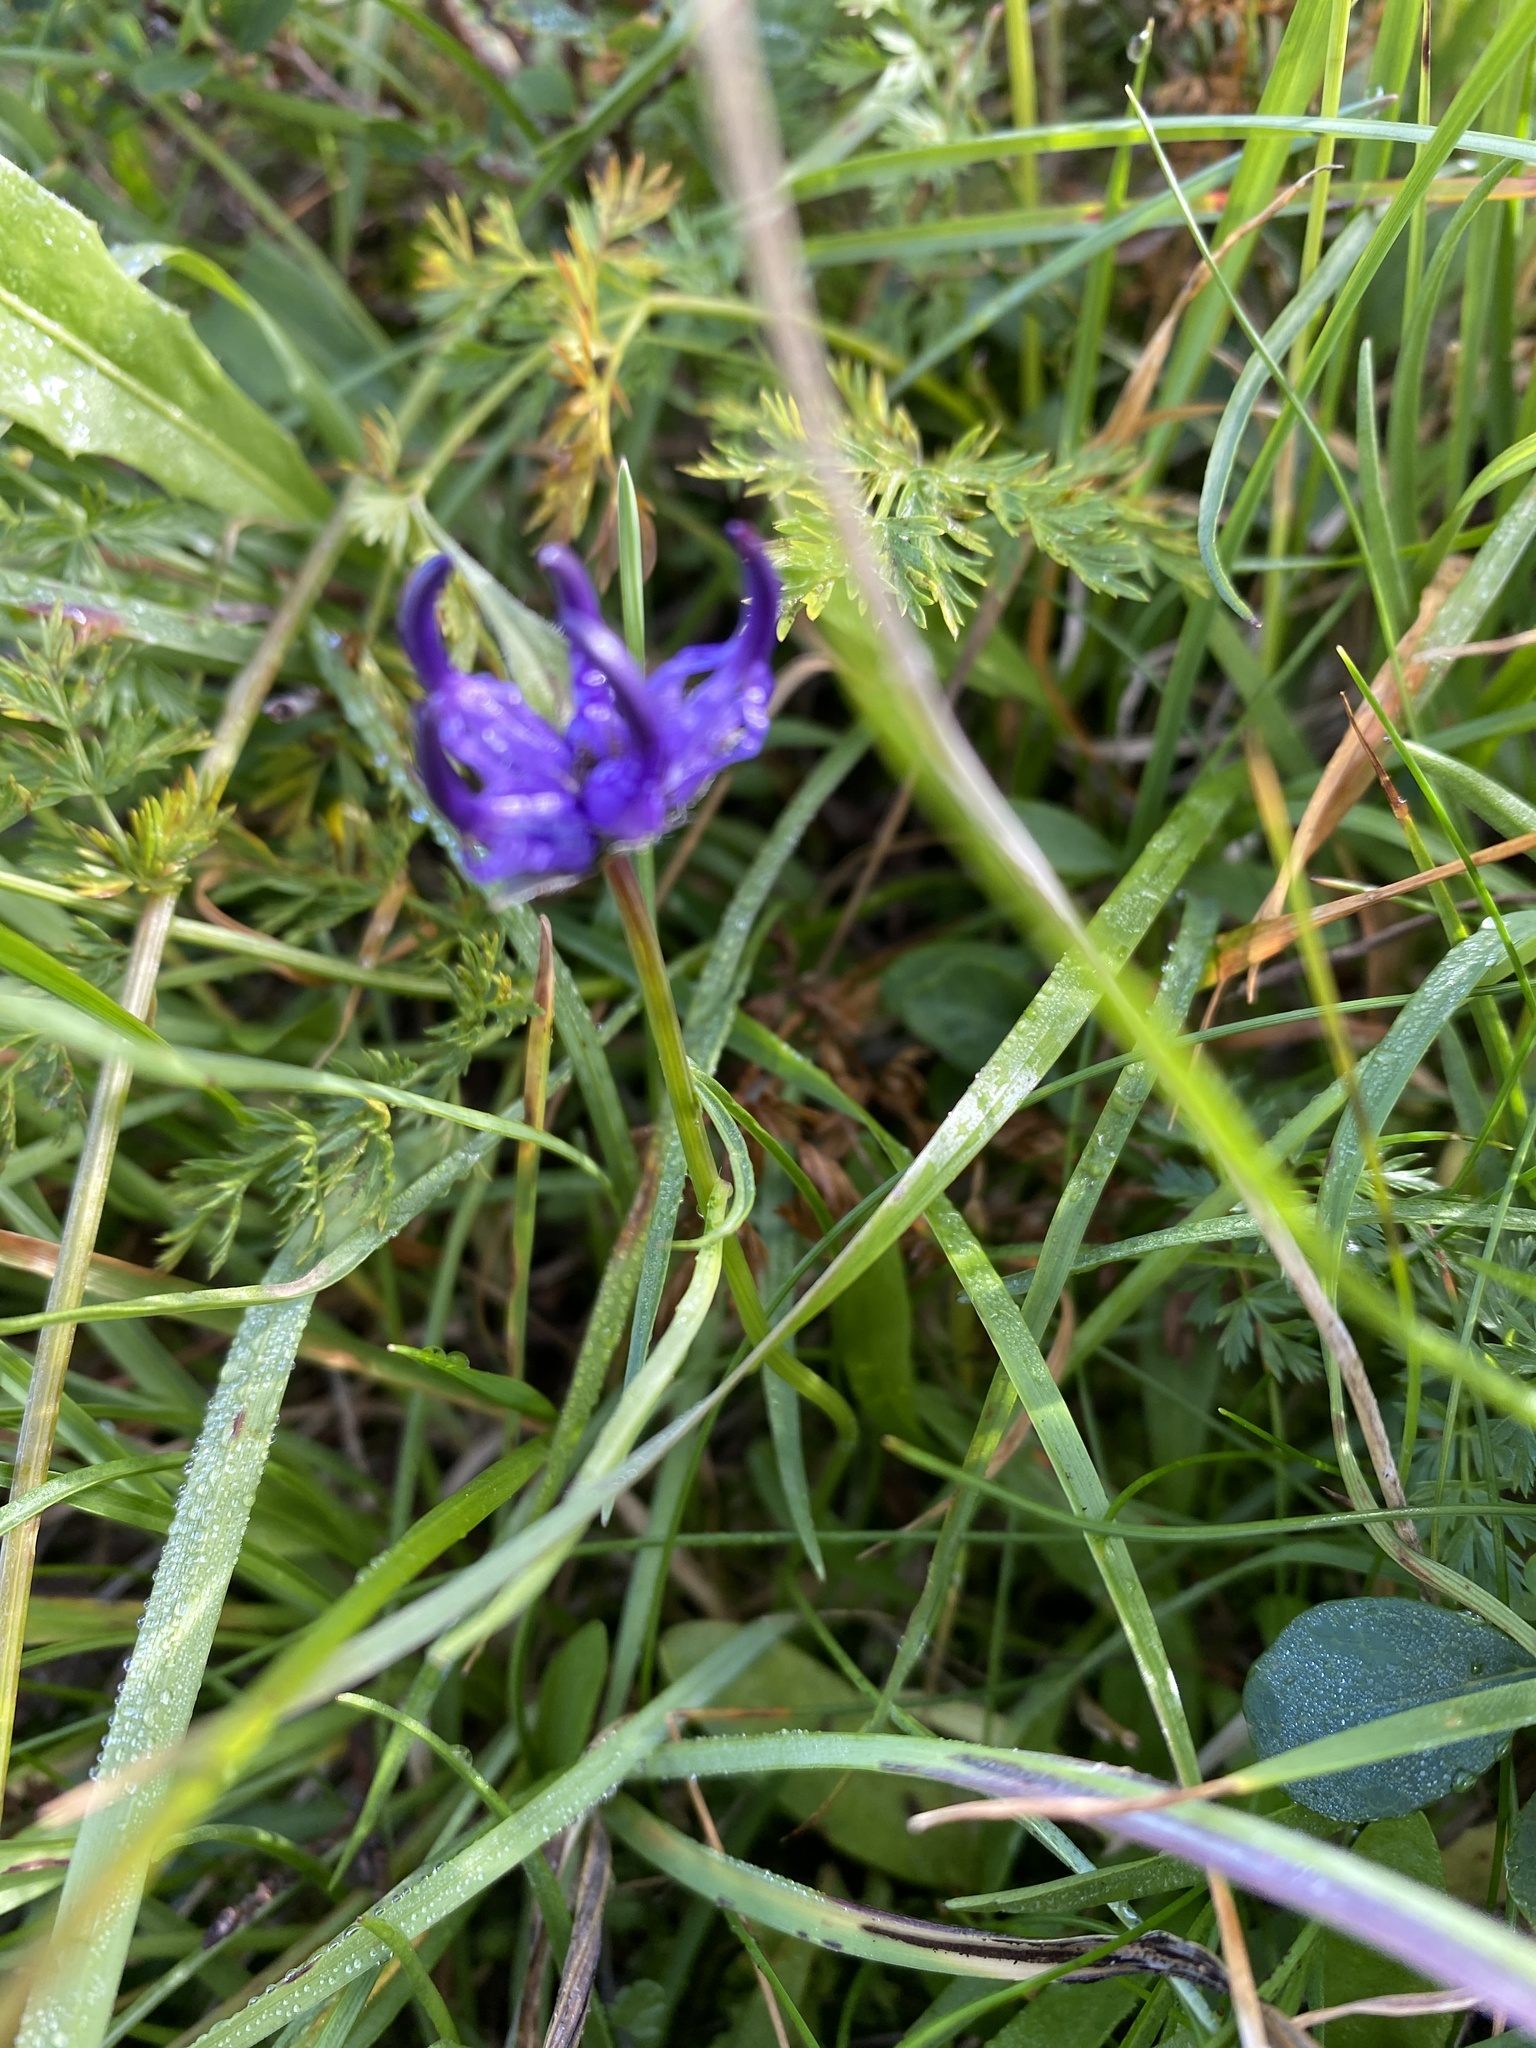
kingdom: Plantae
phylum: Tracheophyta
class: Magnoliopsida
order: Asterales
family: Campanulaceae
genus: Phyteuma
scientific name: Phyteuma hemisphaericum
